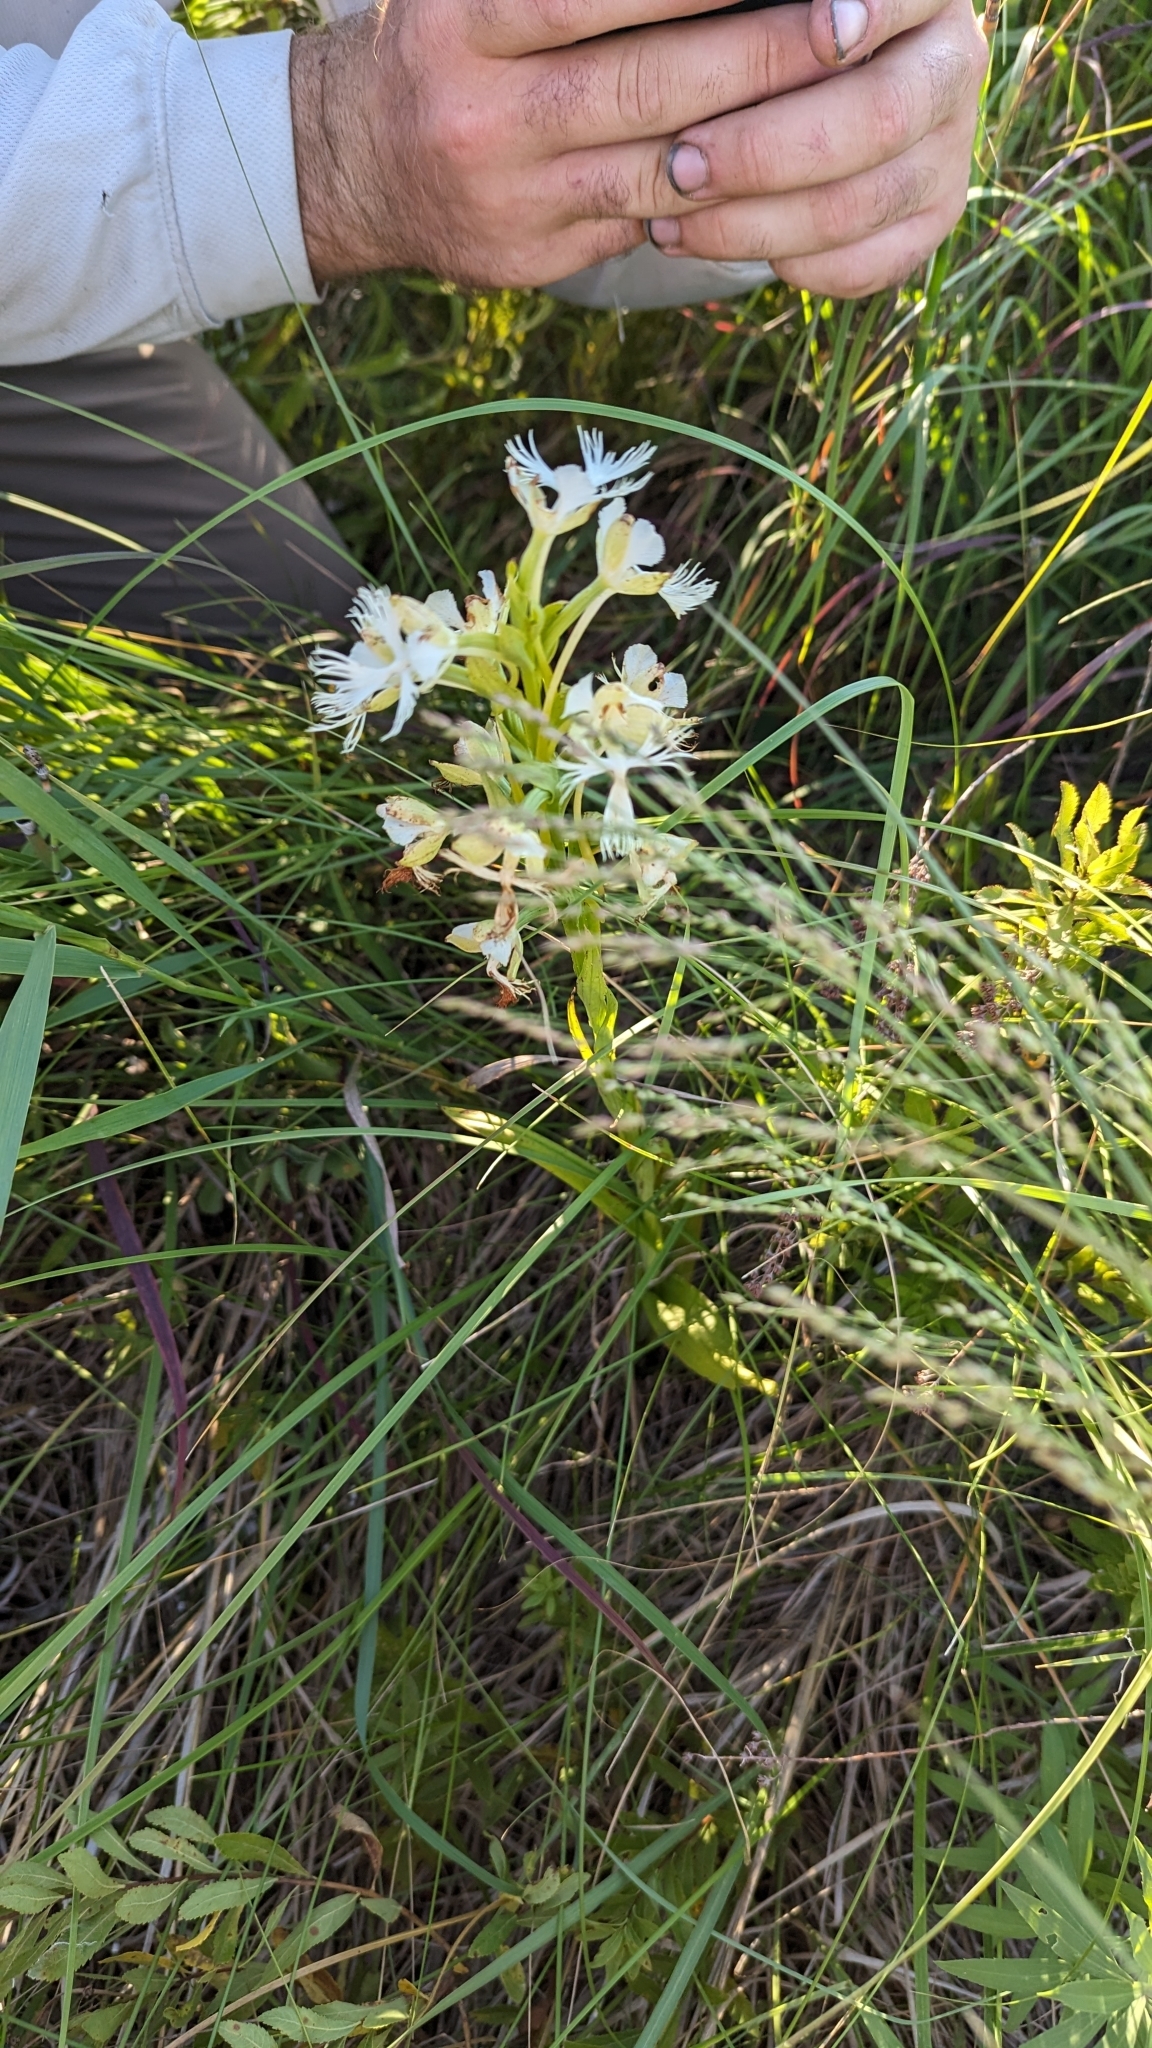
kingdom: Plantae
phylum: Tracheophyta
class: Liliopsida
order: Asparagales
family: Orchidaceae
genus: Platanthera
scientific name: Platanthera praeclara
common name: Western prairie fringed orchid
